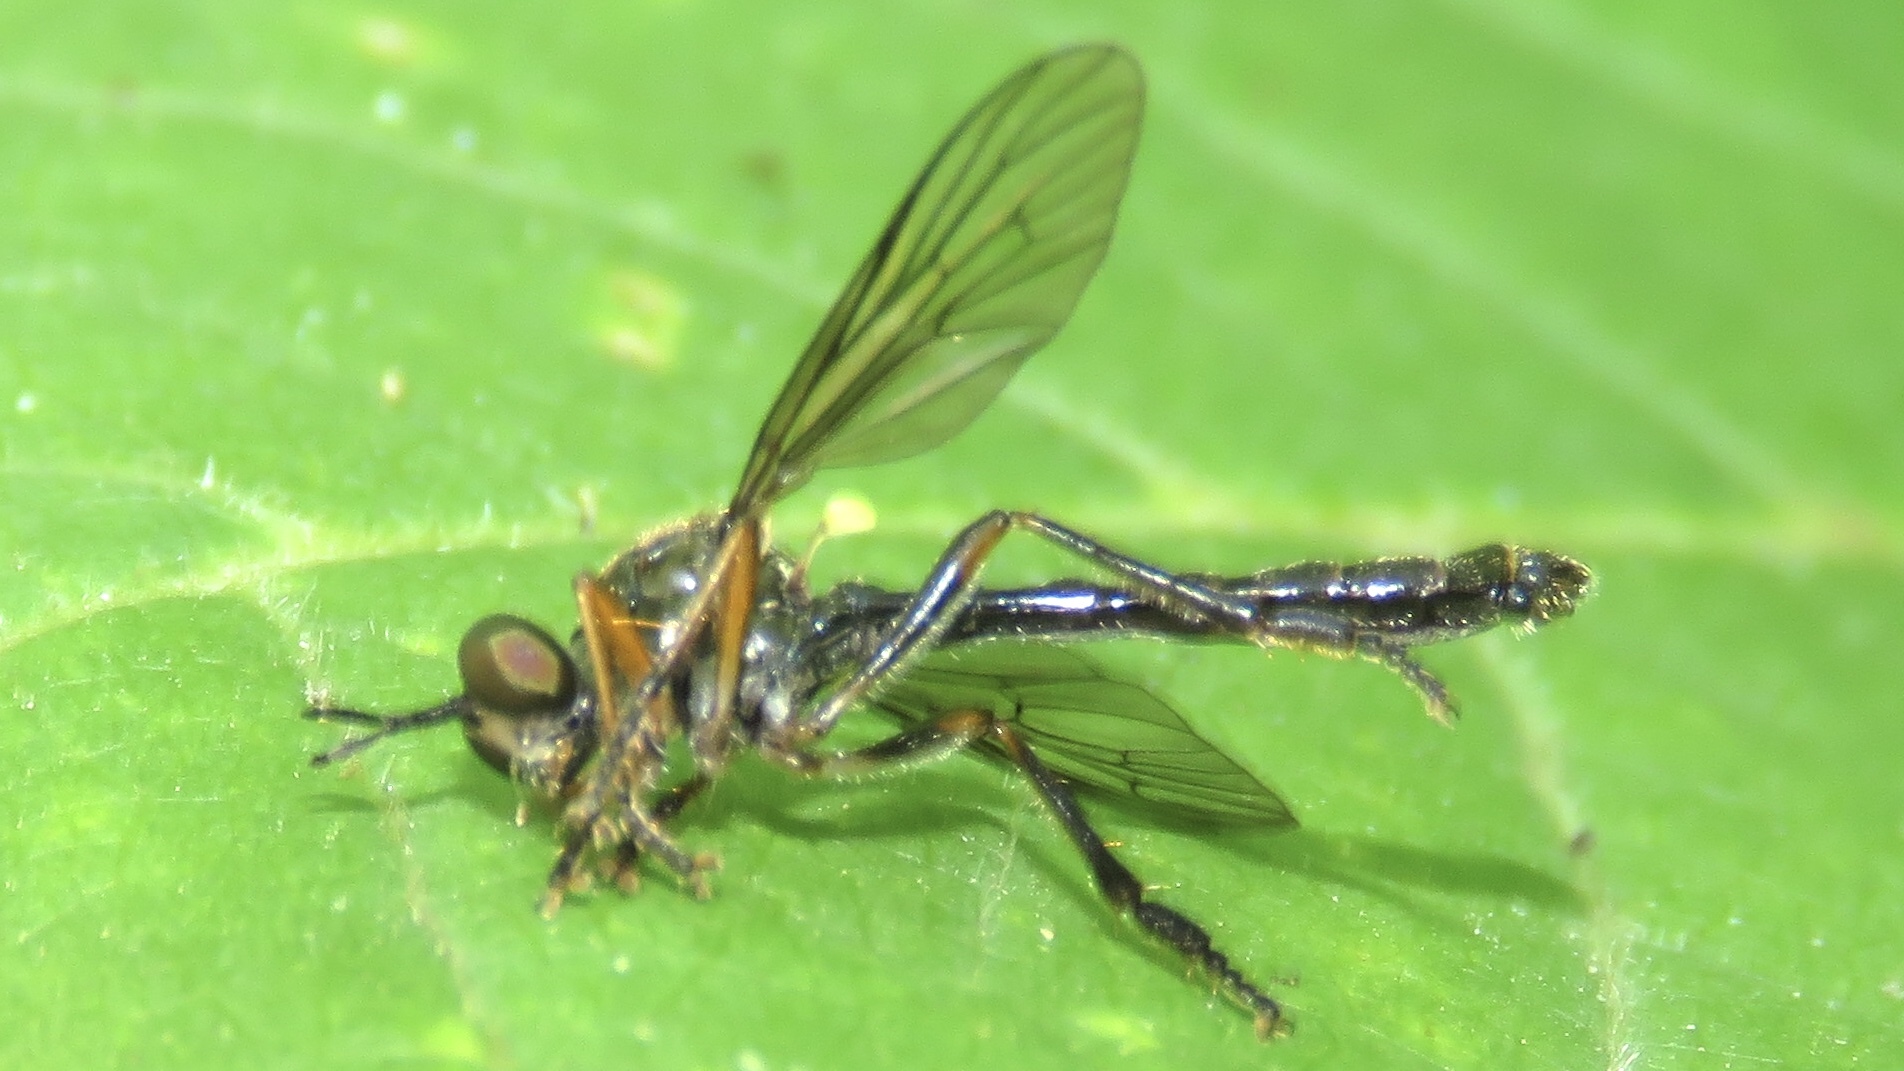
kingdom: Animalia
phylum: Arthropoda
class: Insecta
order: Diptera
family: Asilidae
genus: Dioctria
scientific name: Dioctria hyalipennis
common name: Stripe-legged robberfly
